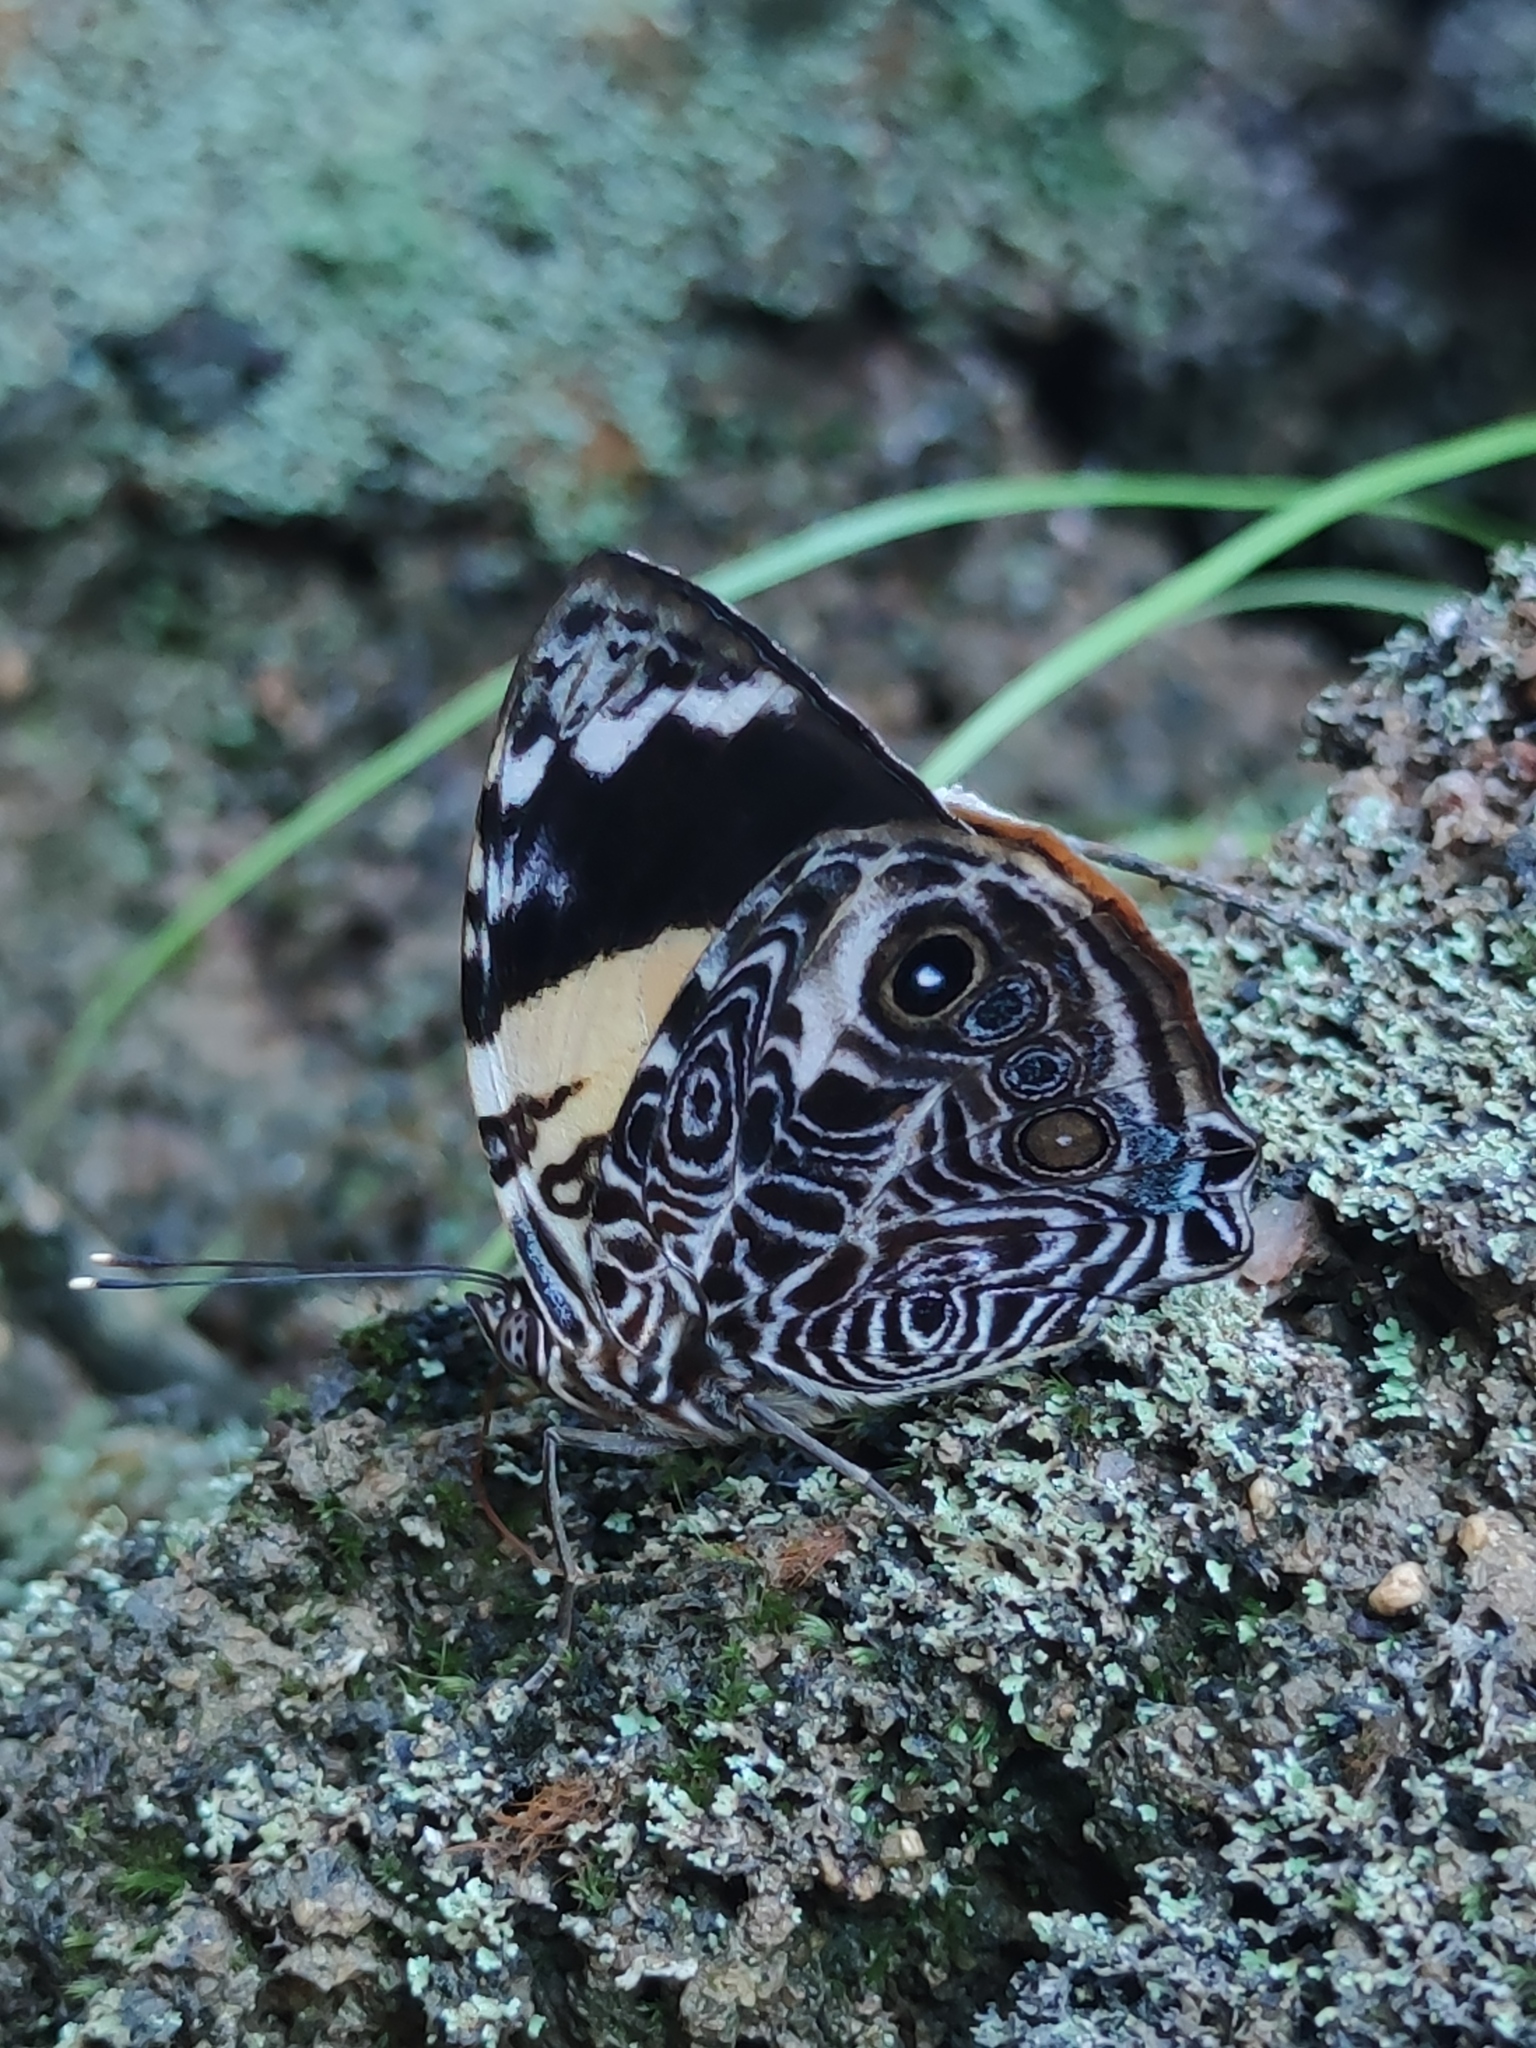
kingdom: Animalia
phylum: Arthropoda
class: Insecta
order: Lepidoptera
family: Nymphalidae
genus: Smyrna
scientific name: Smyrna blomfildia
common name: Blomfild's beauty
